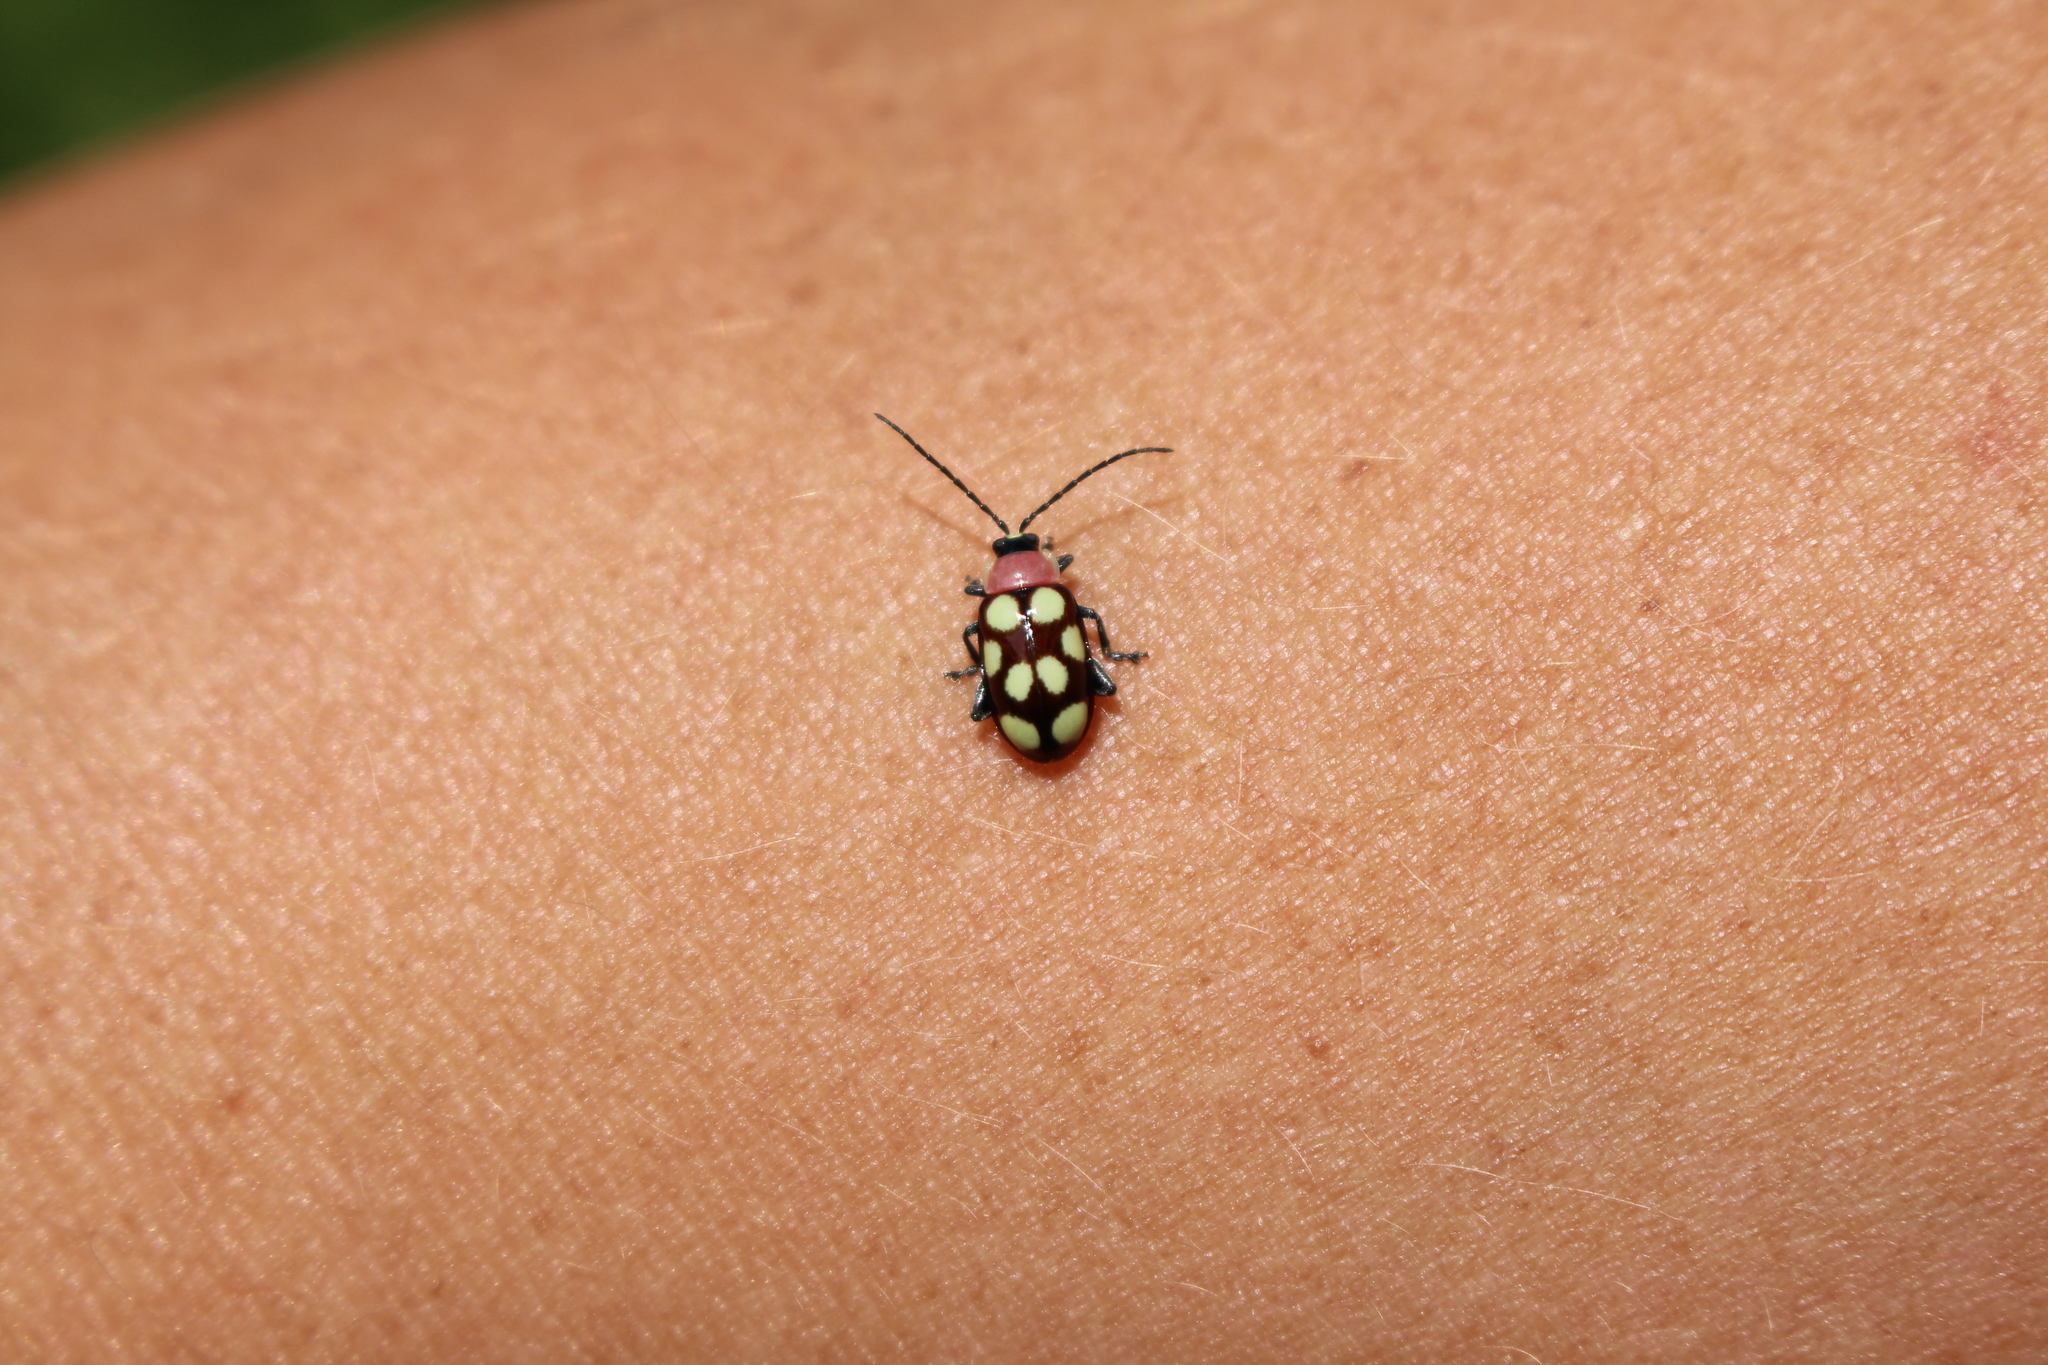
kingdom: Animalia
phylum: Arthropoda
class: Insecta
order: Coleoptera
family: Chrysomelidae
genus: Omophoita
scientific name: Omophoita aequinoctialis
